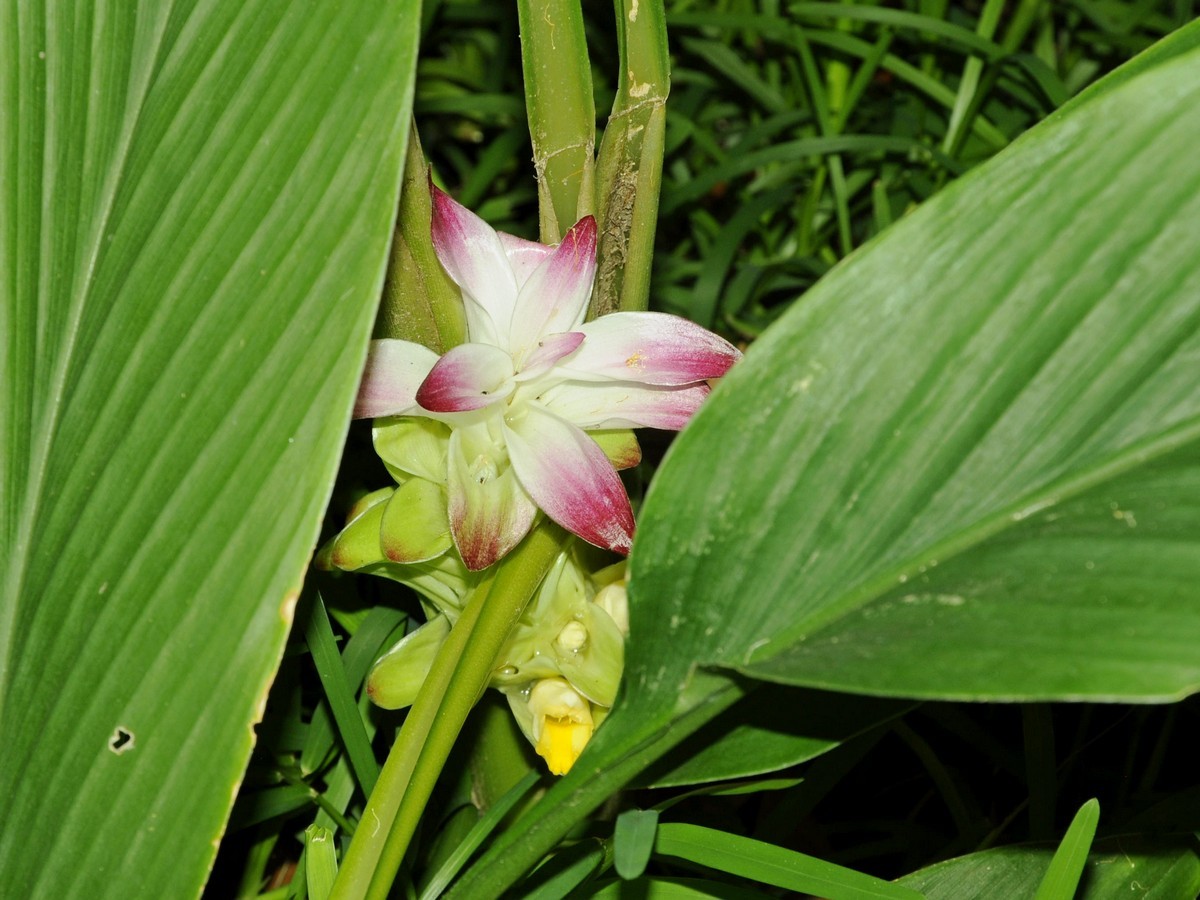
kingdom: Plantae
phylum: Tracheophyta
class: Liliopsida
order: Zingiberales
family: Zingiberaceae
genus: Curcuma
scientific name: Curcuma pseudomontana
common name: Hill turmeric
